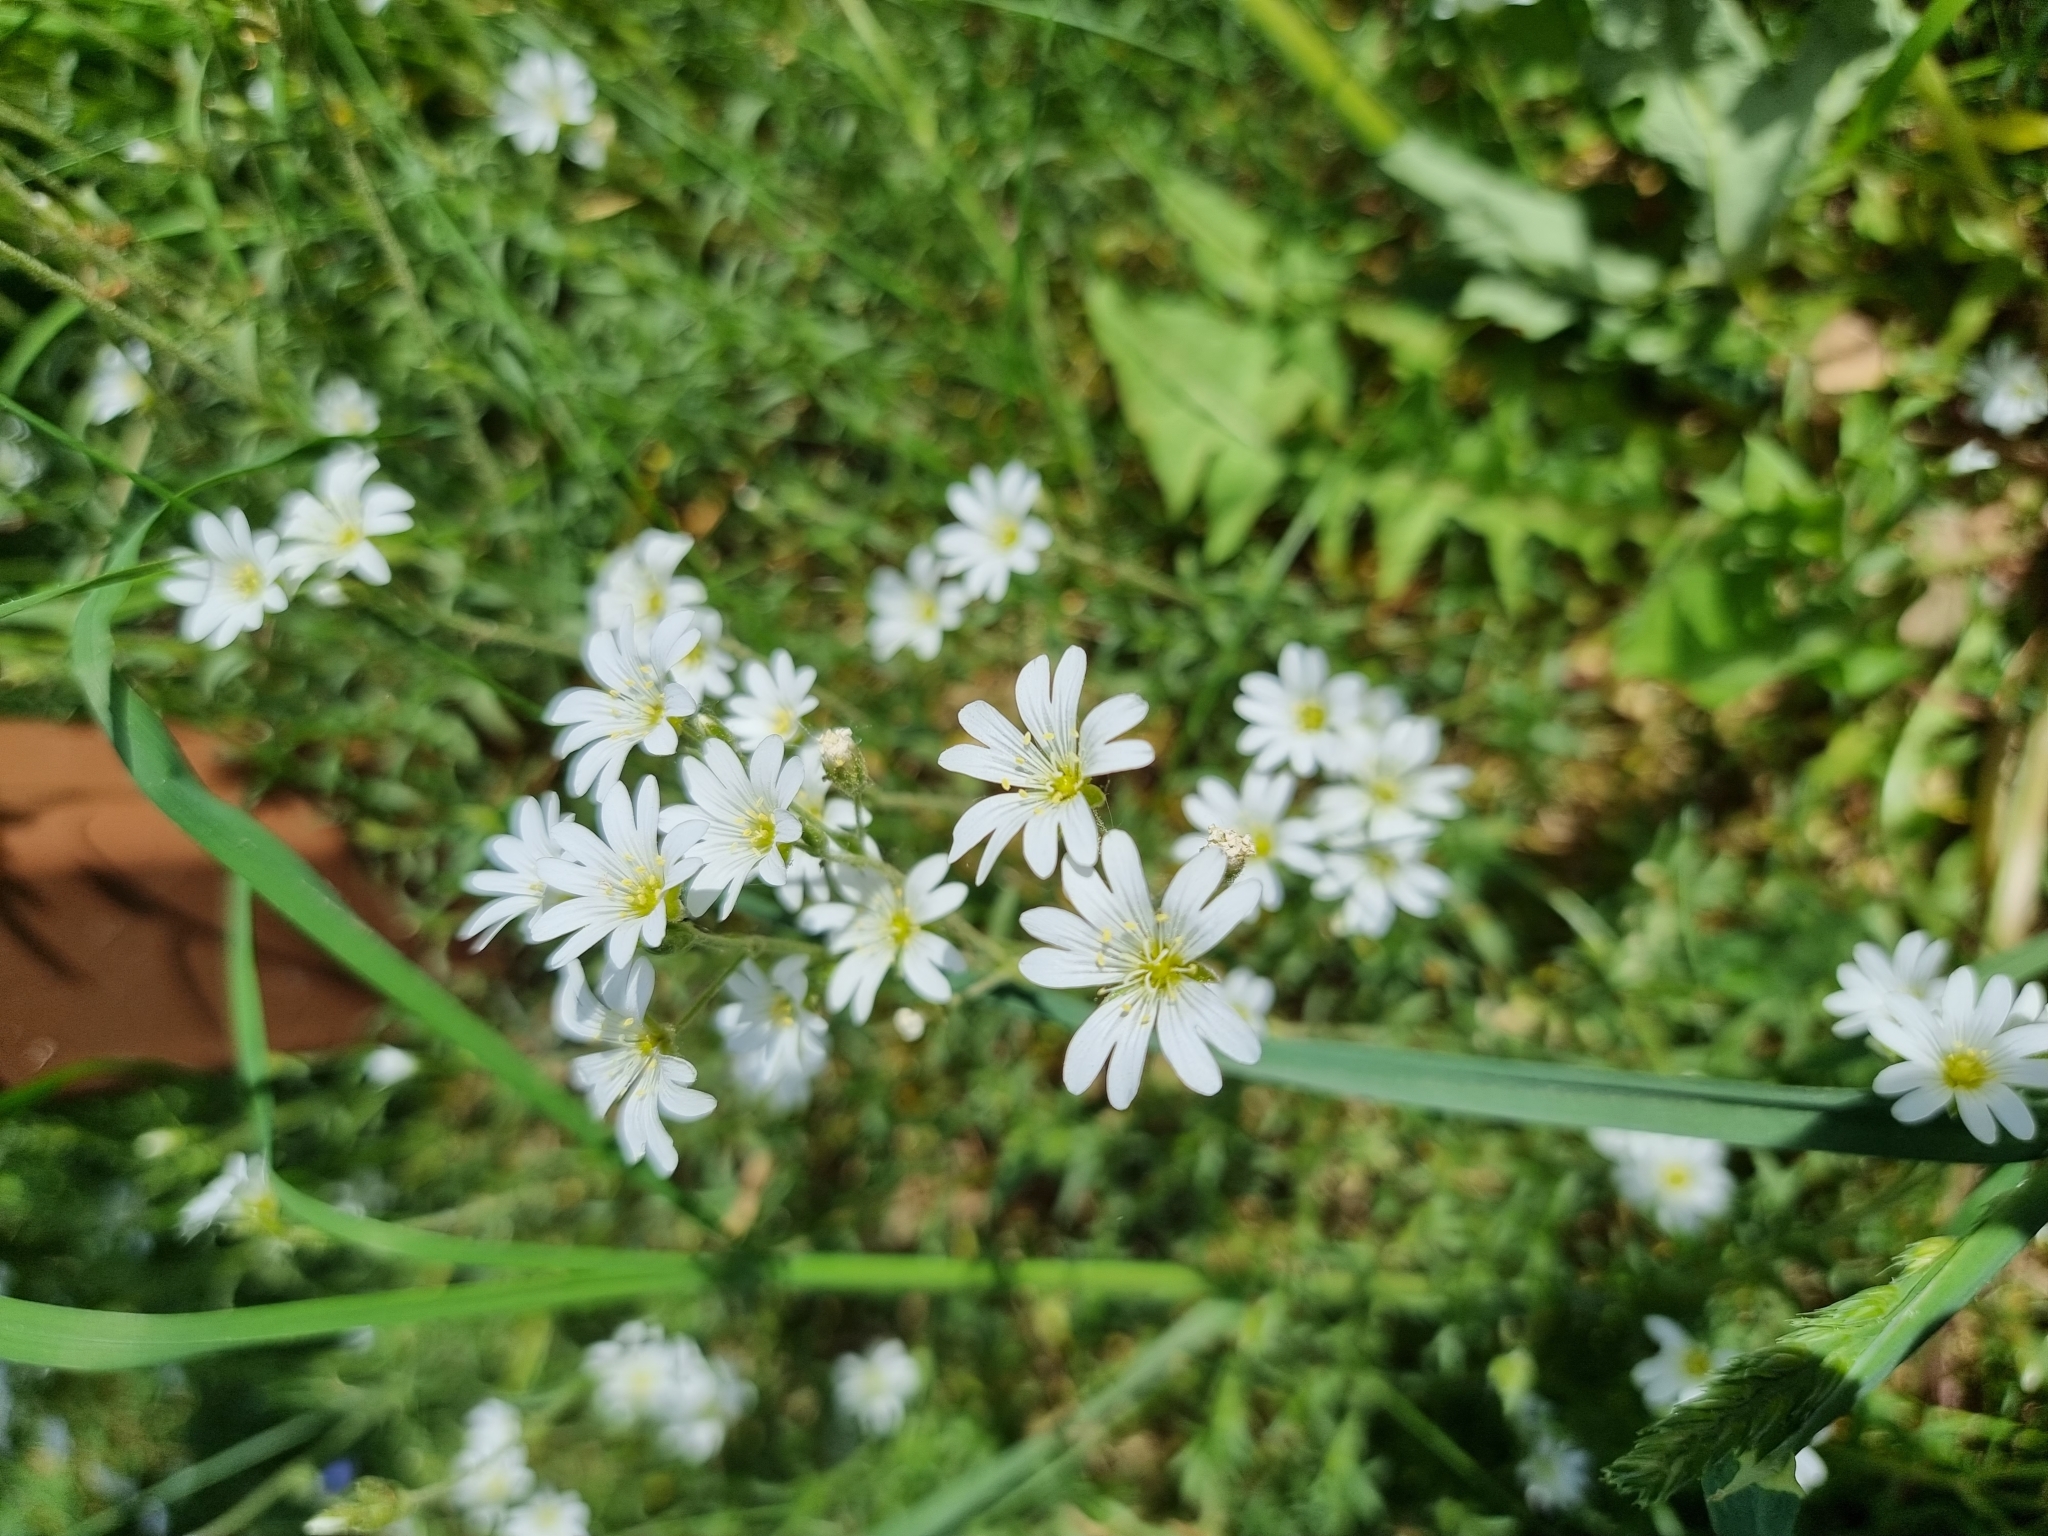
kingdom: Plantae
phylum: Tracheophyta
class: Magnoliopsida
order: Caryophyllales
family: Caryophyllaceae
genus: Cerastium
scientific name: Cerastium arvense
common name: Field mouse-ear
